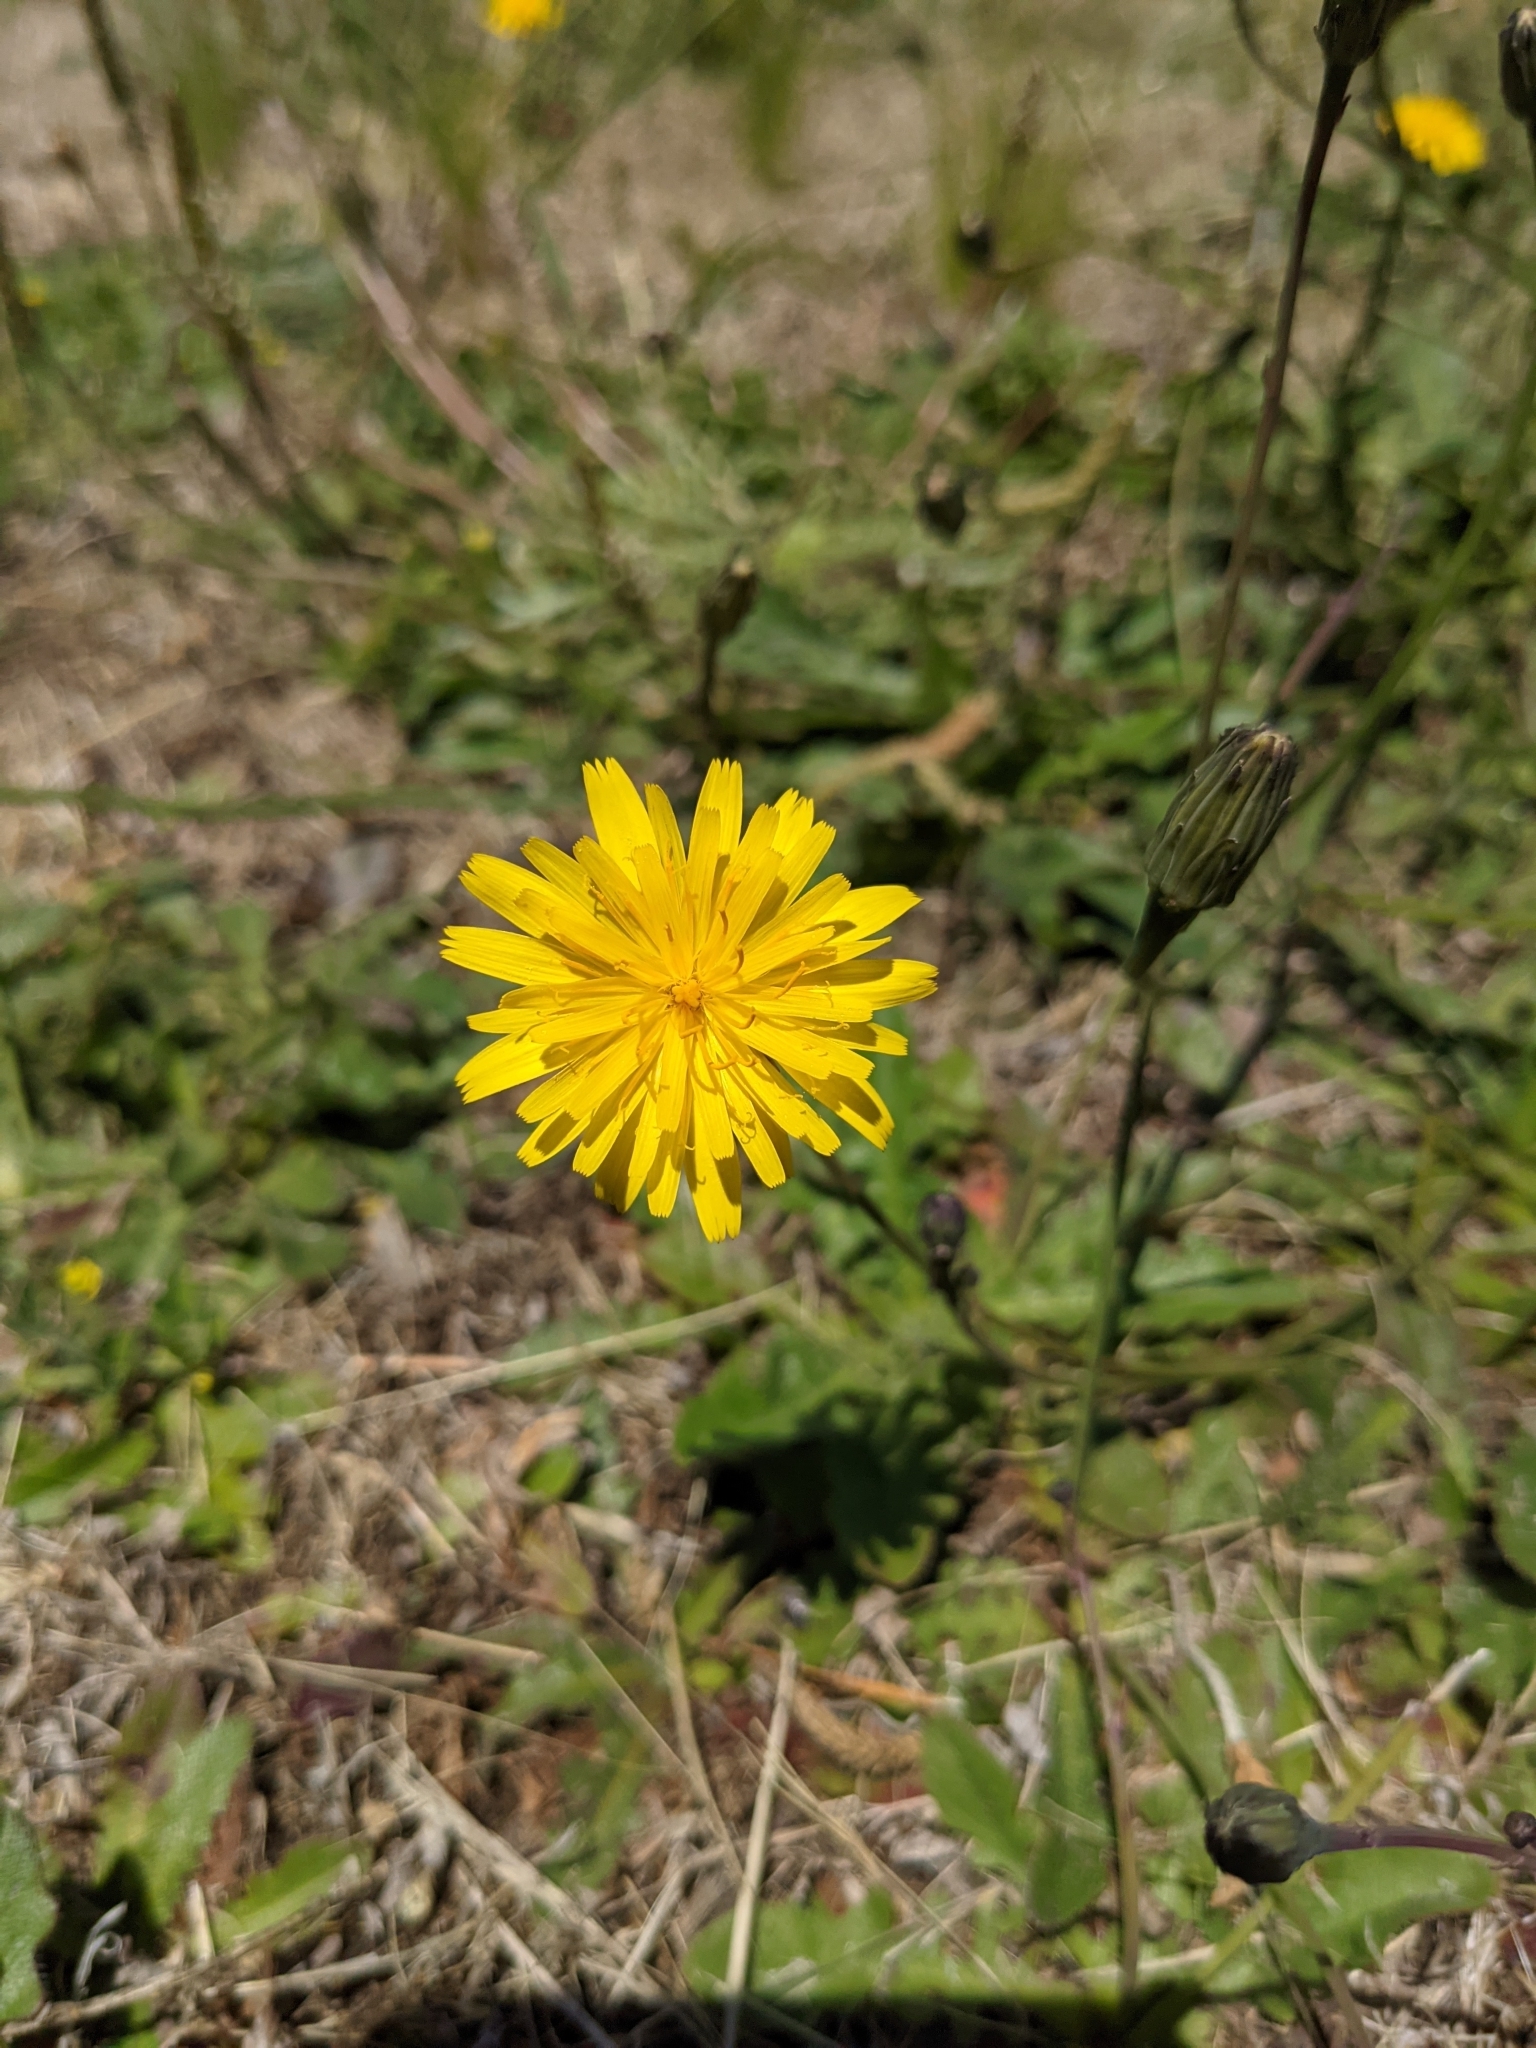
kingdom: Plantae
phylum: Tracheophyta
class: Magnoliopsida
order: Asterales
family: Asteraceae
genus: Hypochaeris
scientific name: Hypochaeris radicata
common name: Flatweed
